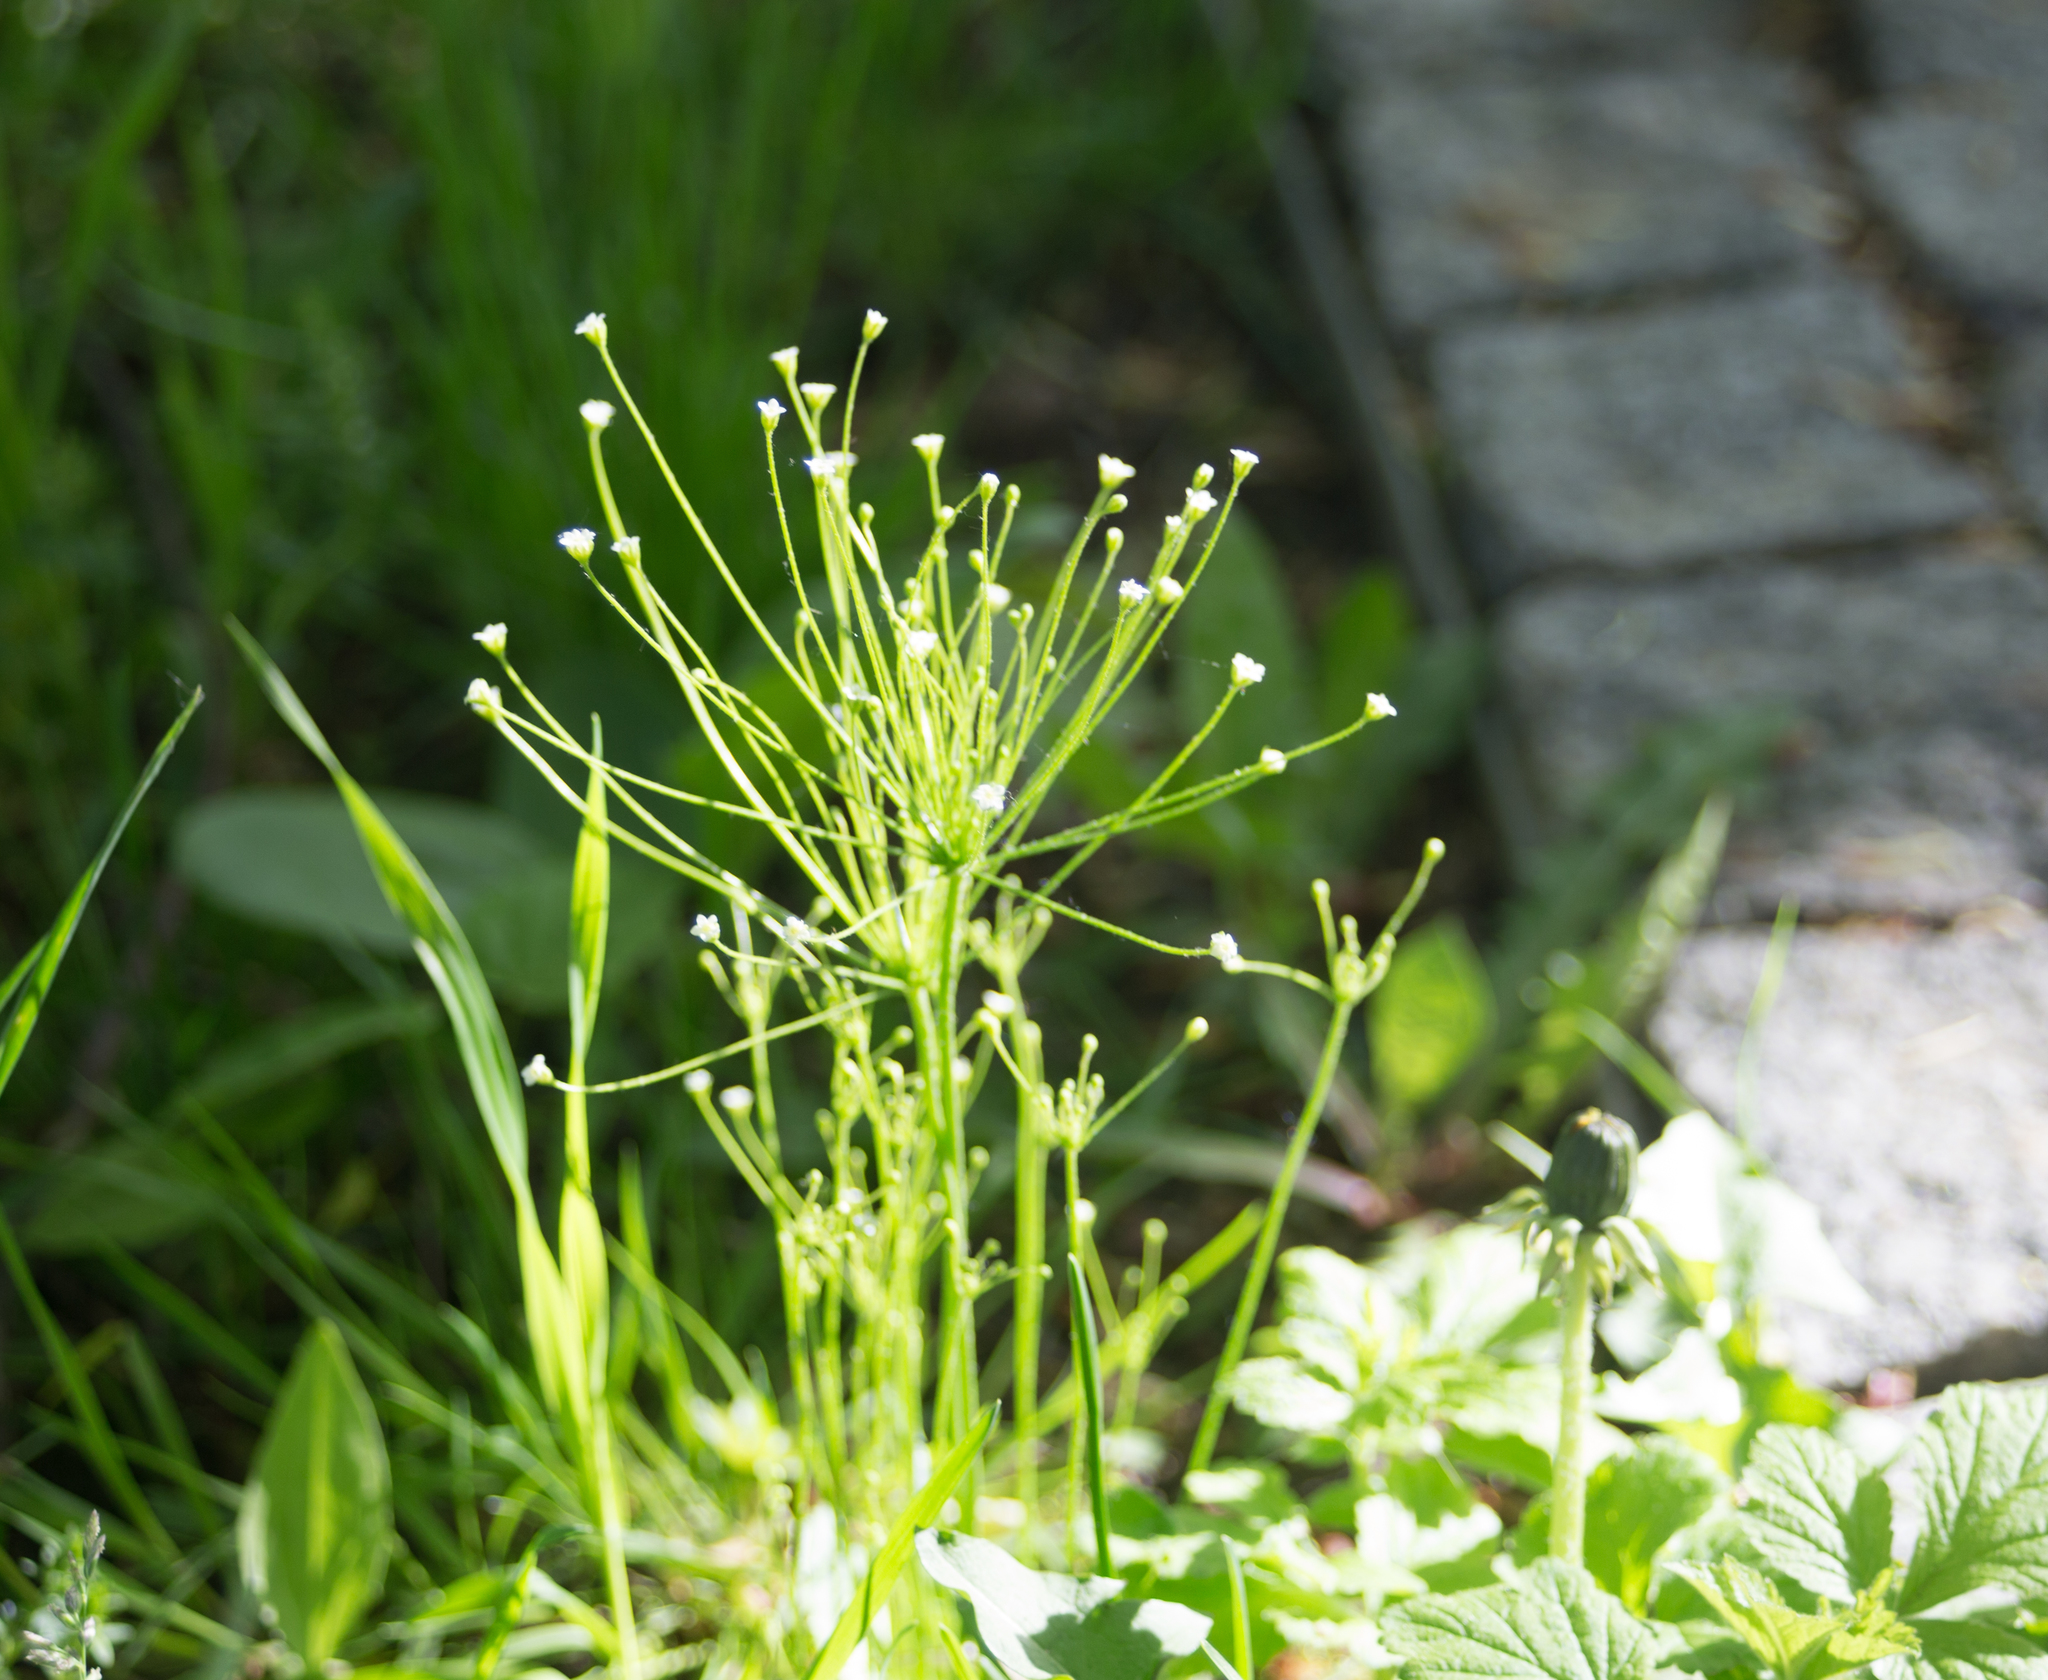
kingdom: Plantae
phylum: Tracheophyta
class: Magnoliopsida
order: Ericales
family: Primulaceae
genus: Androsace
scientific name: Androsace filiformis
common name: Filiform rock jasmine
